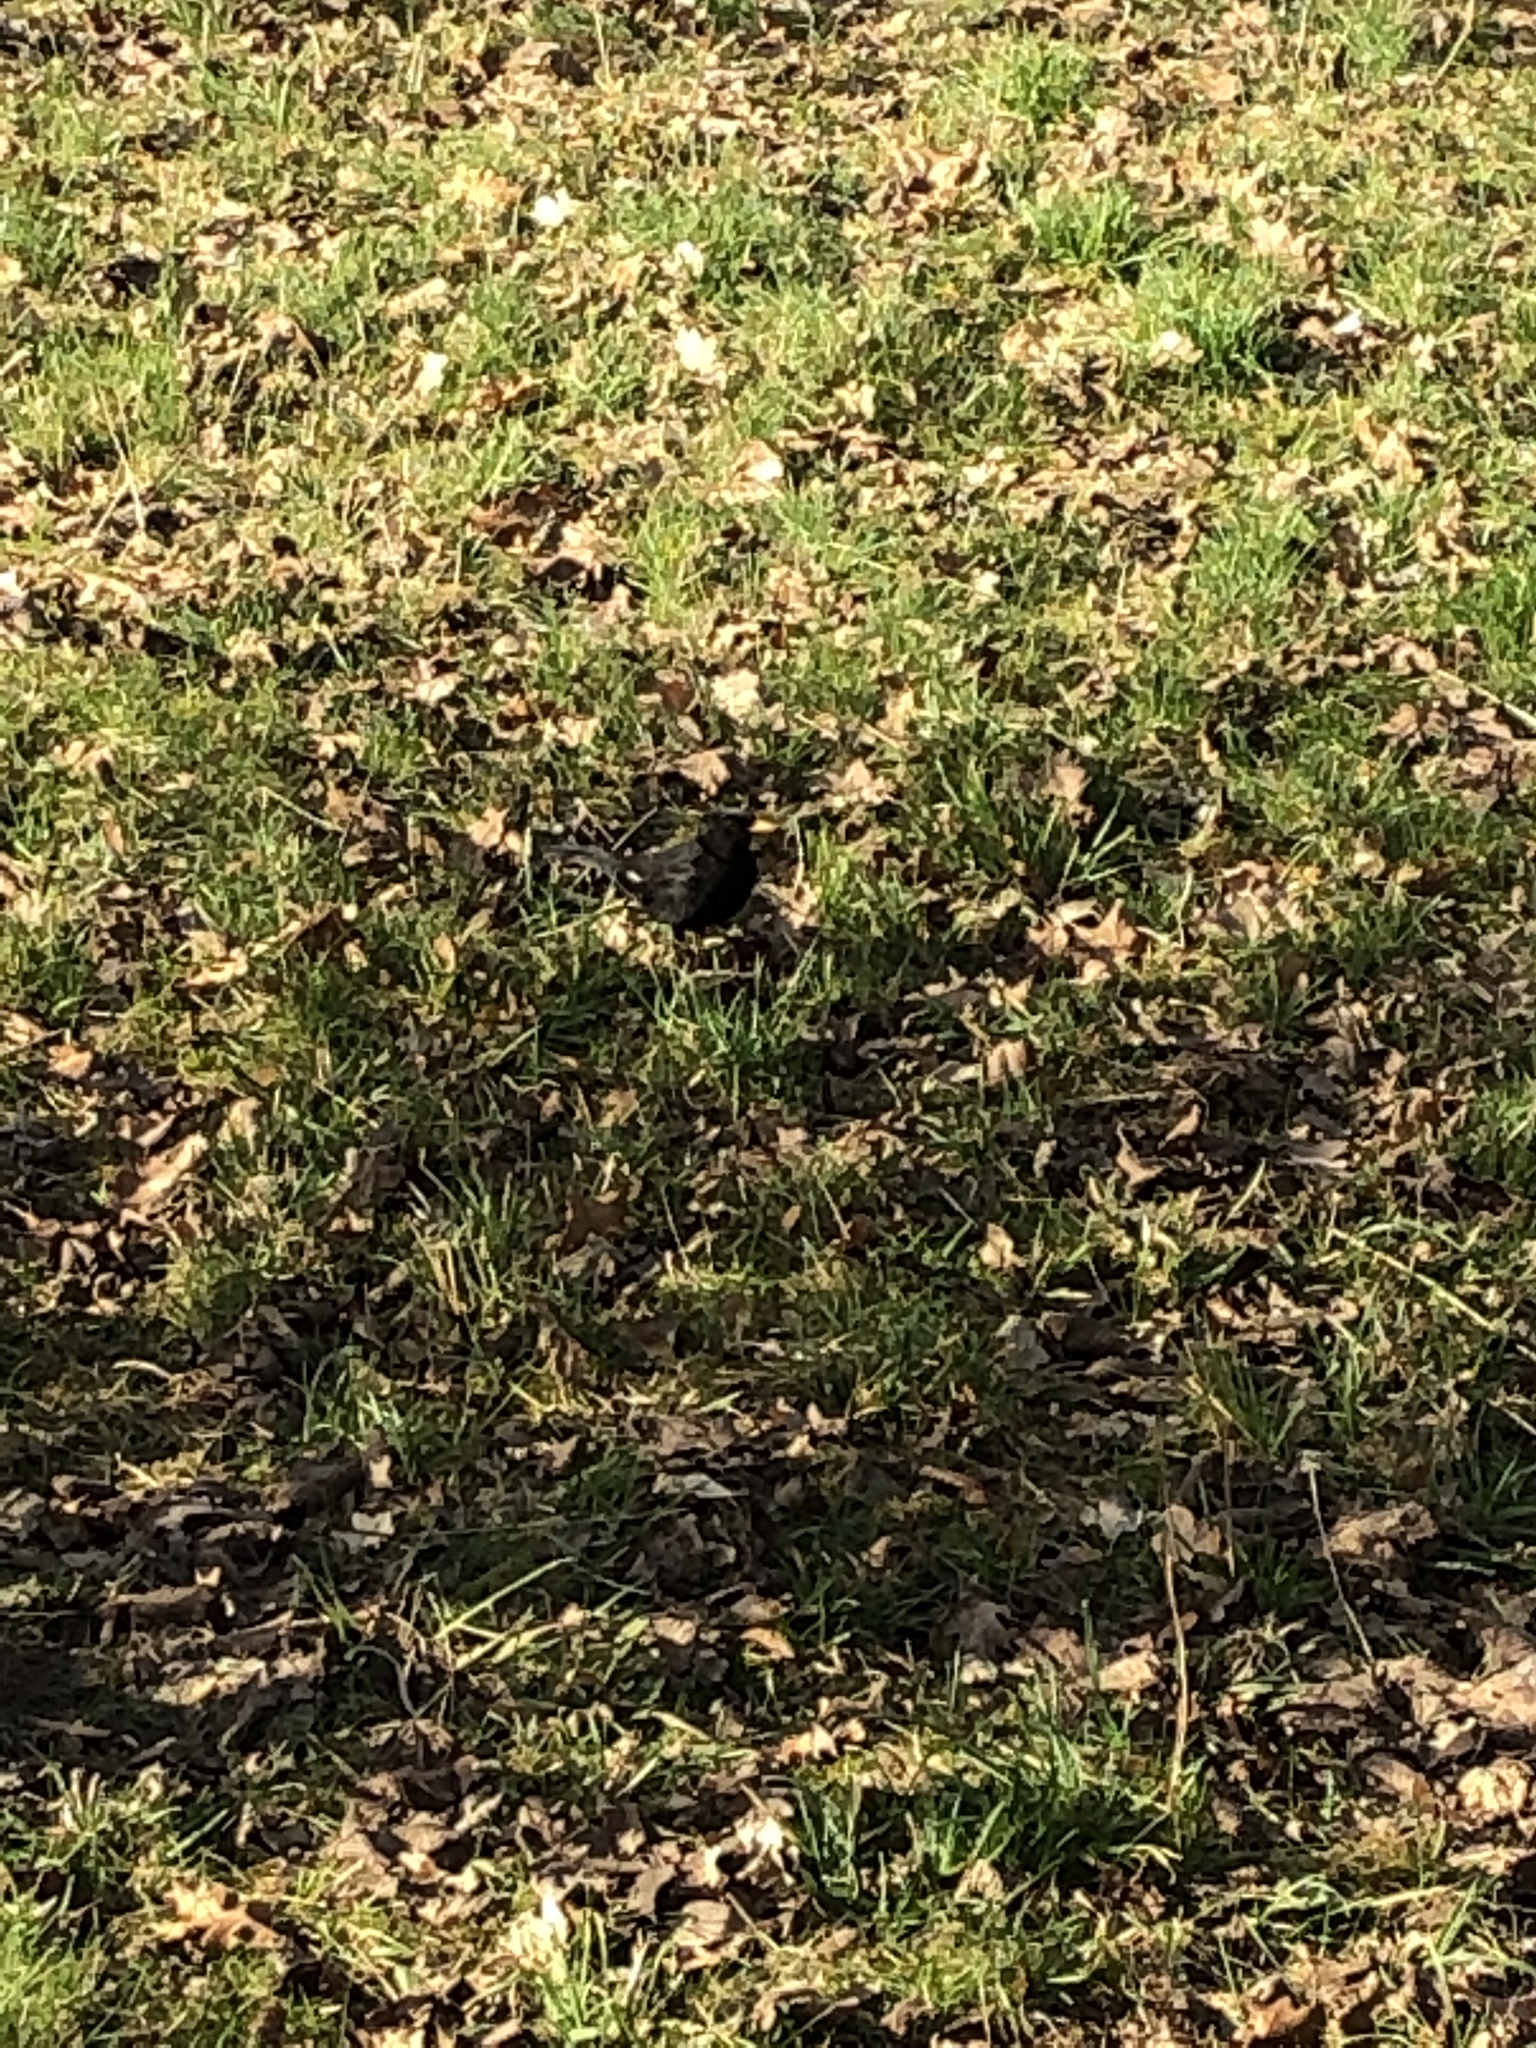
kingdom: Animalia
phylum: Chordata
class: Aves
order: Passeriformes
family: Turdidae
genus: Turdus
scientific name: Turdus merula
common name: Common blackbird
